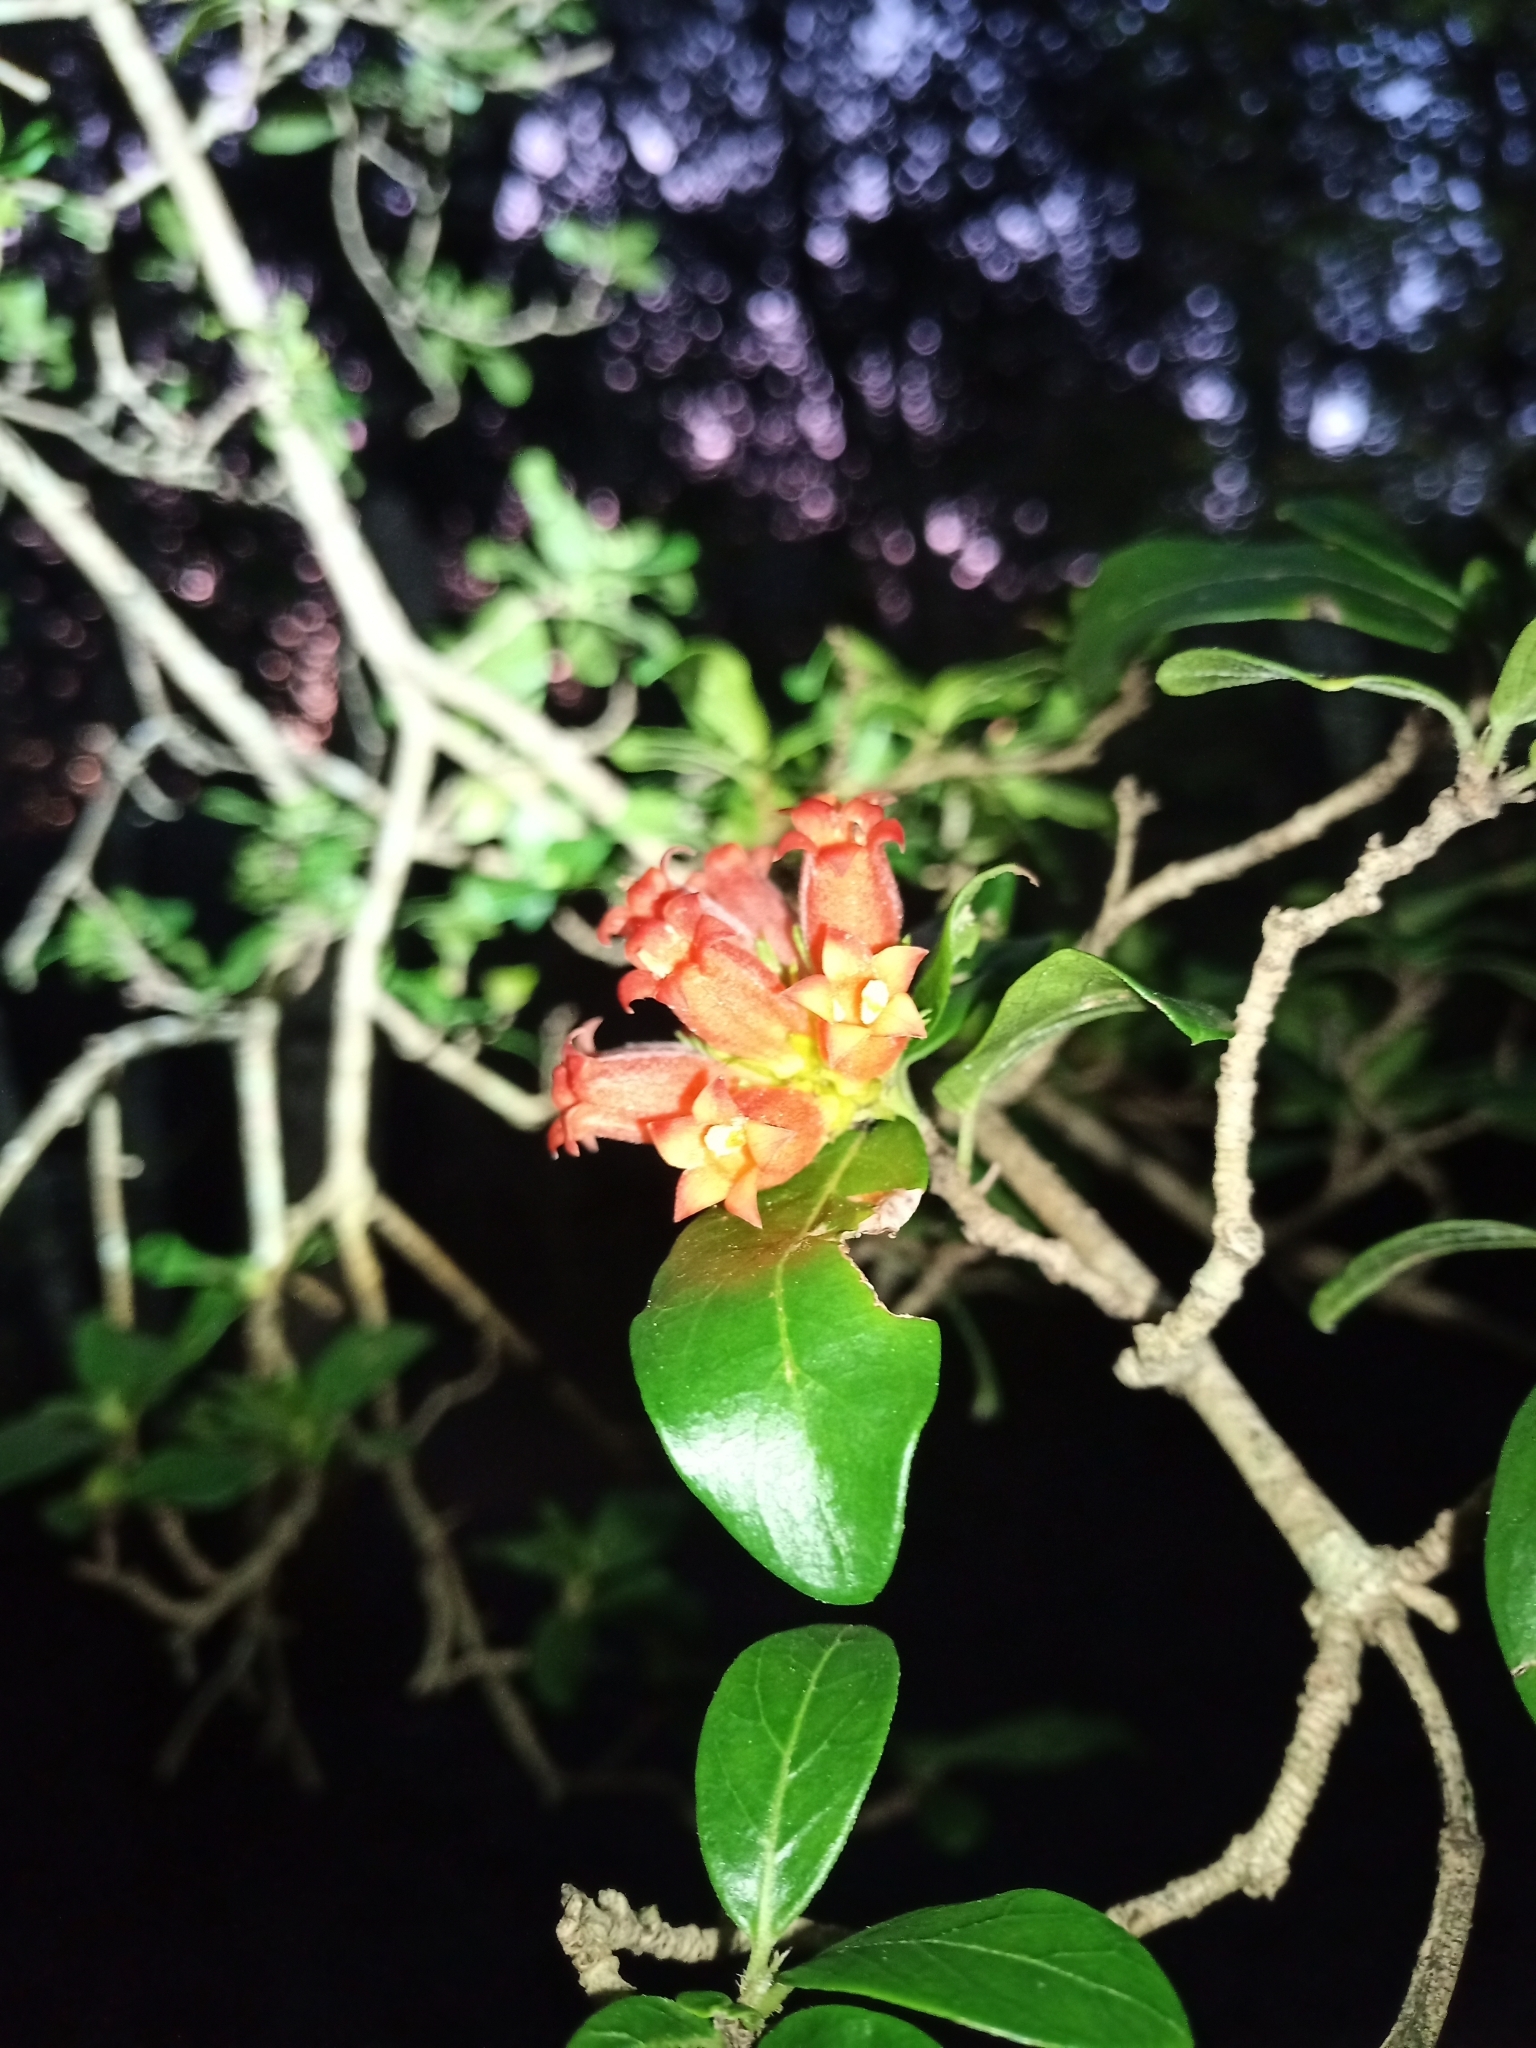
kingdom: Plantae
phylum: Tracheophyta
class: Magnoliopsida
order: Gentianales
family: Rubiaceae
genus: Burchellia
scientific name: Burchellia bubalina
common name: Wild pomegranate
